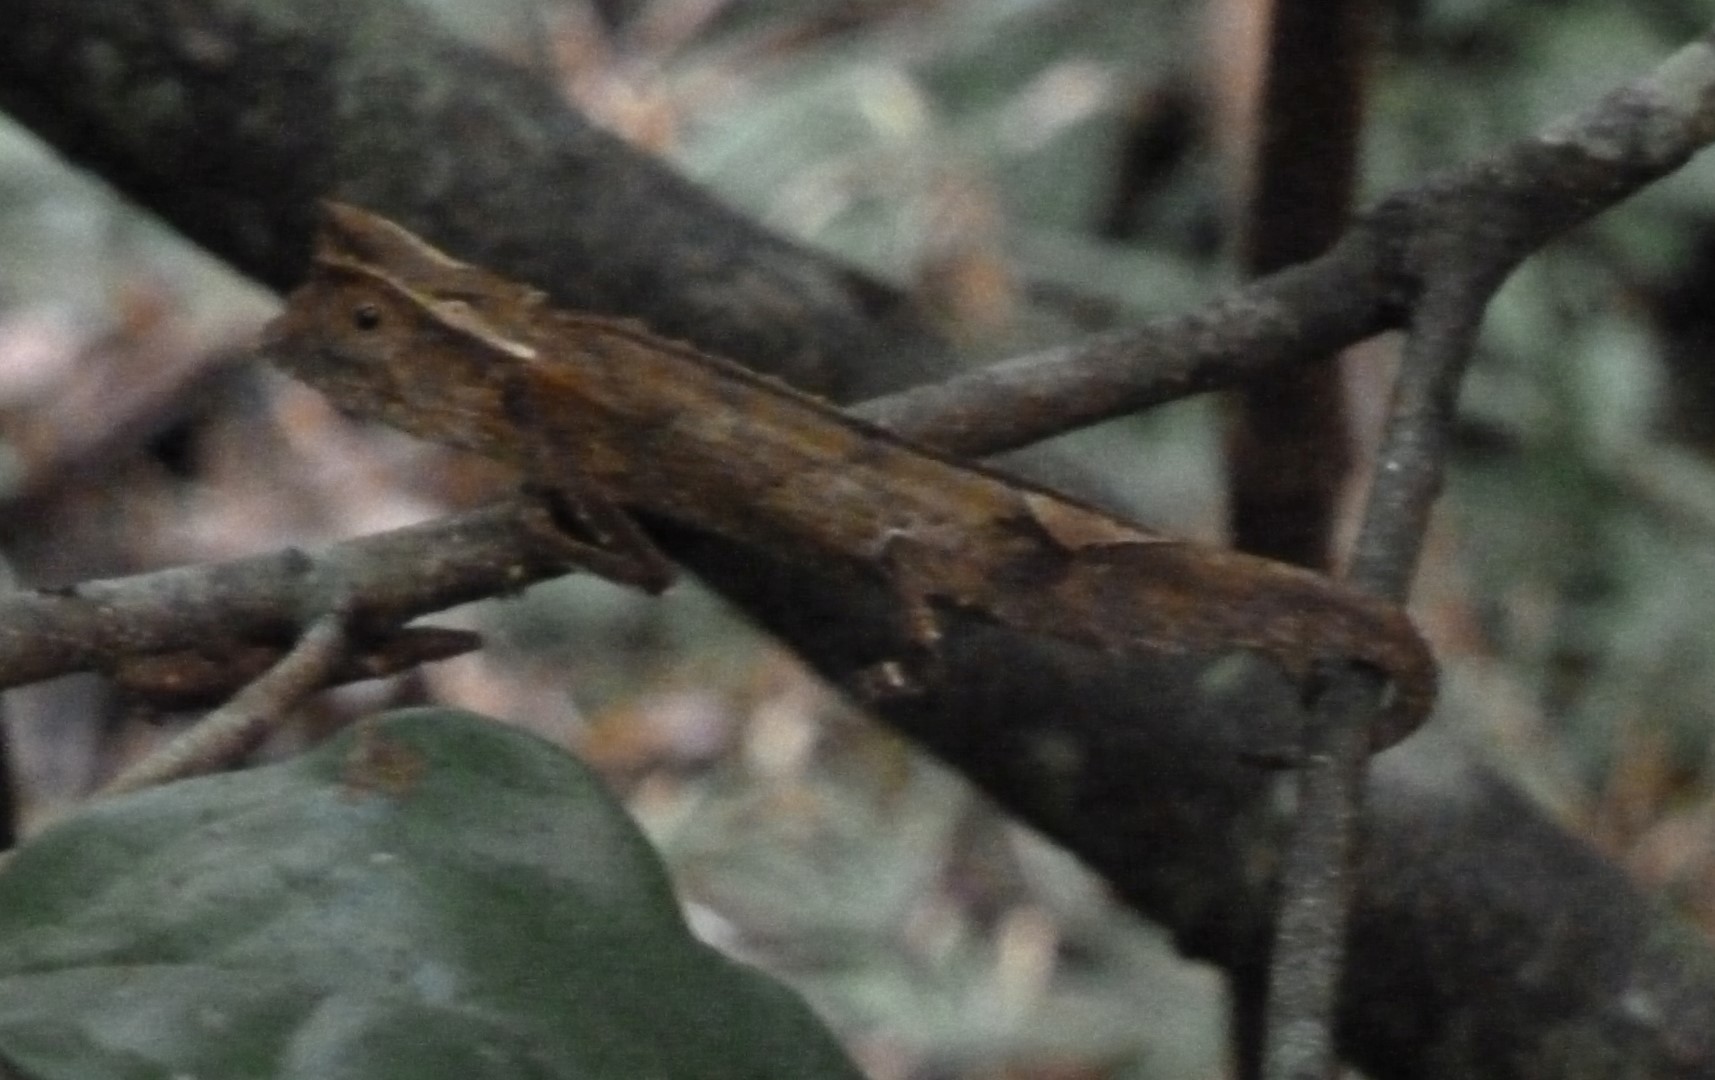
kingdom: Animalia
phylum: Chordata
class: Squamata
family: Chamaeleonidae
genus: Brookesia
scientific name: Brookesia griveaudi
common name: Marojejy leaf chameleon
